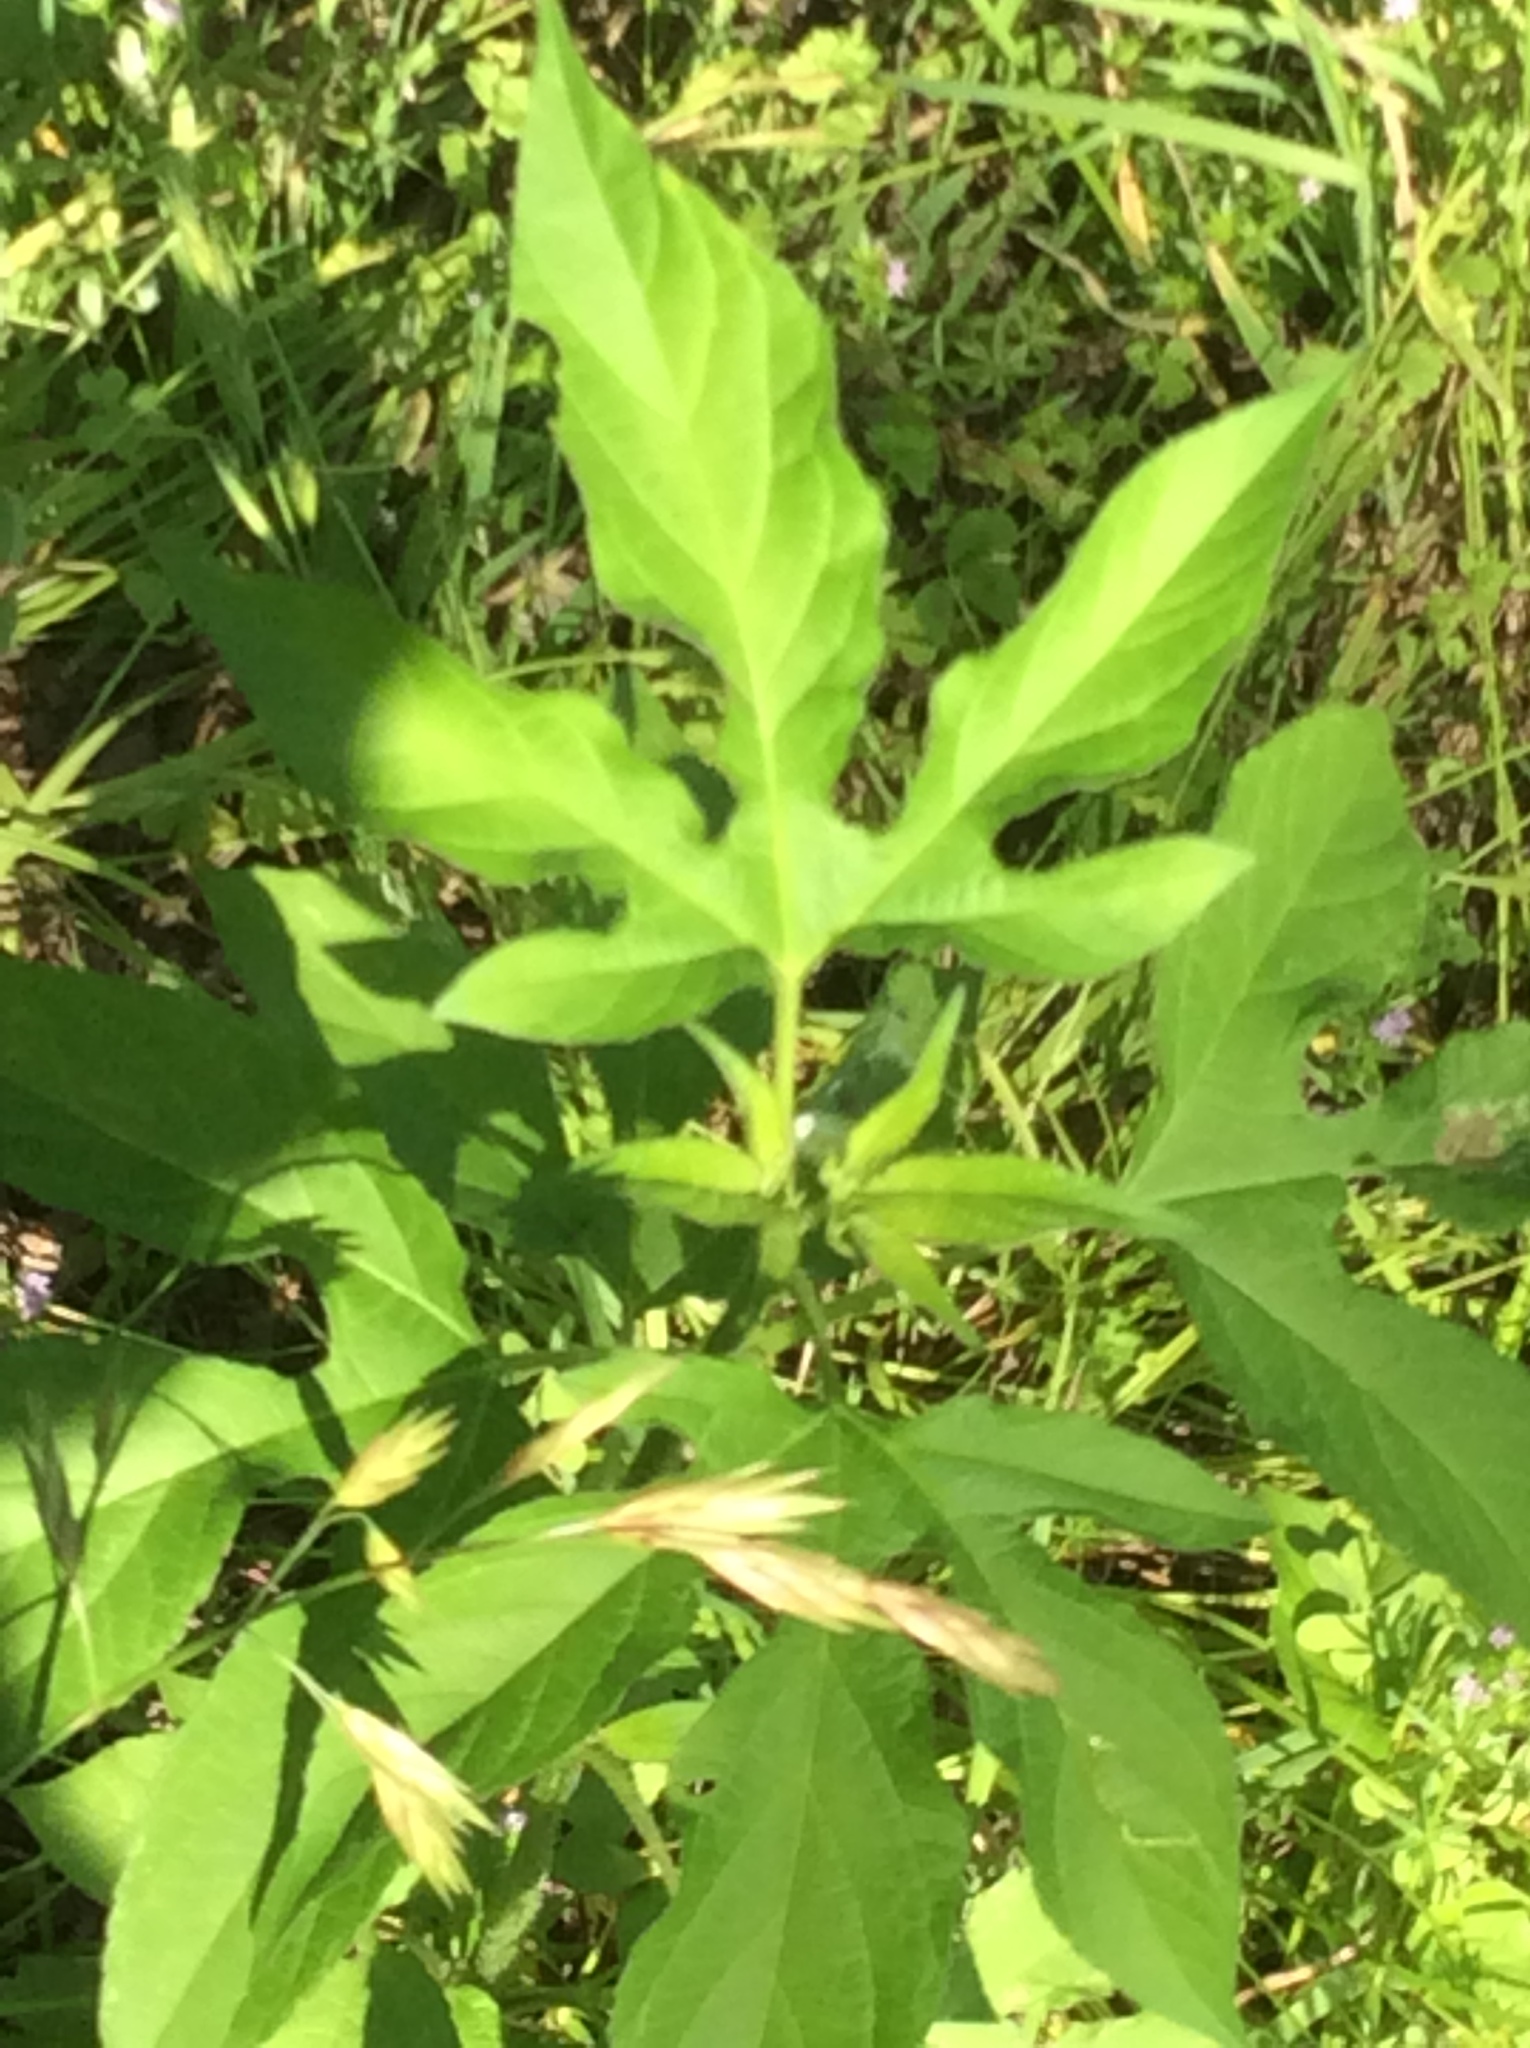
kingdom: Plantae
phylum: Tracheophyta
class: Magnoliopsida
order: Asterales
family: Asteraceae
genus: Ambrosia
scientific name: Ambrosia trifida
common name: Giant ragweed
